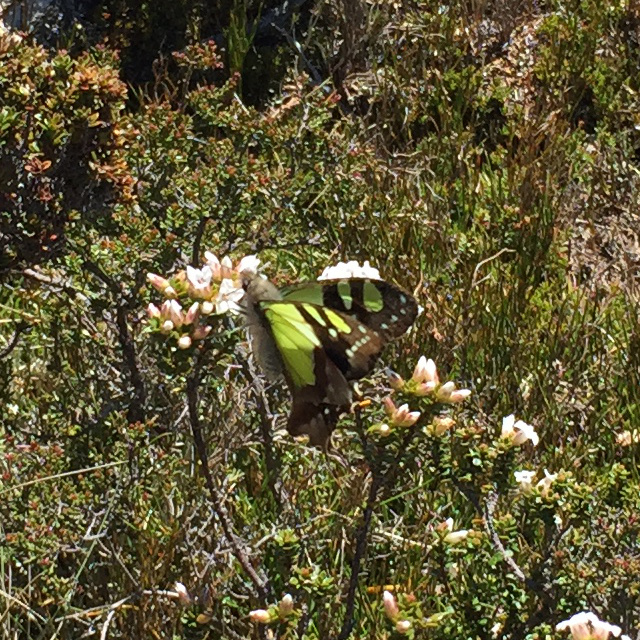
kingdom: Animalia
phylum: Arthropoda
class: Insecta
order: Lepidoptera
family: Papilionidae
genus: Graphium
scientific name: Graphium macleayanus
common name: Macleay's swallowtail
